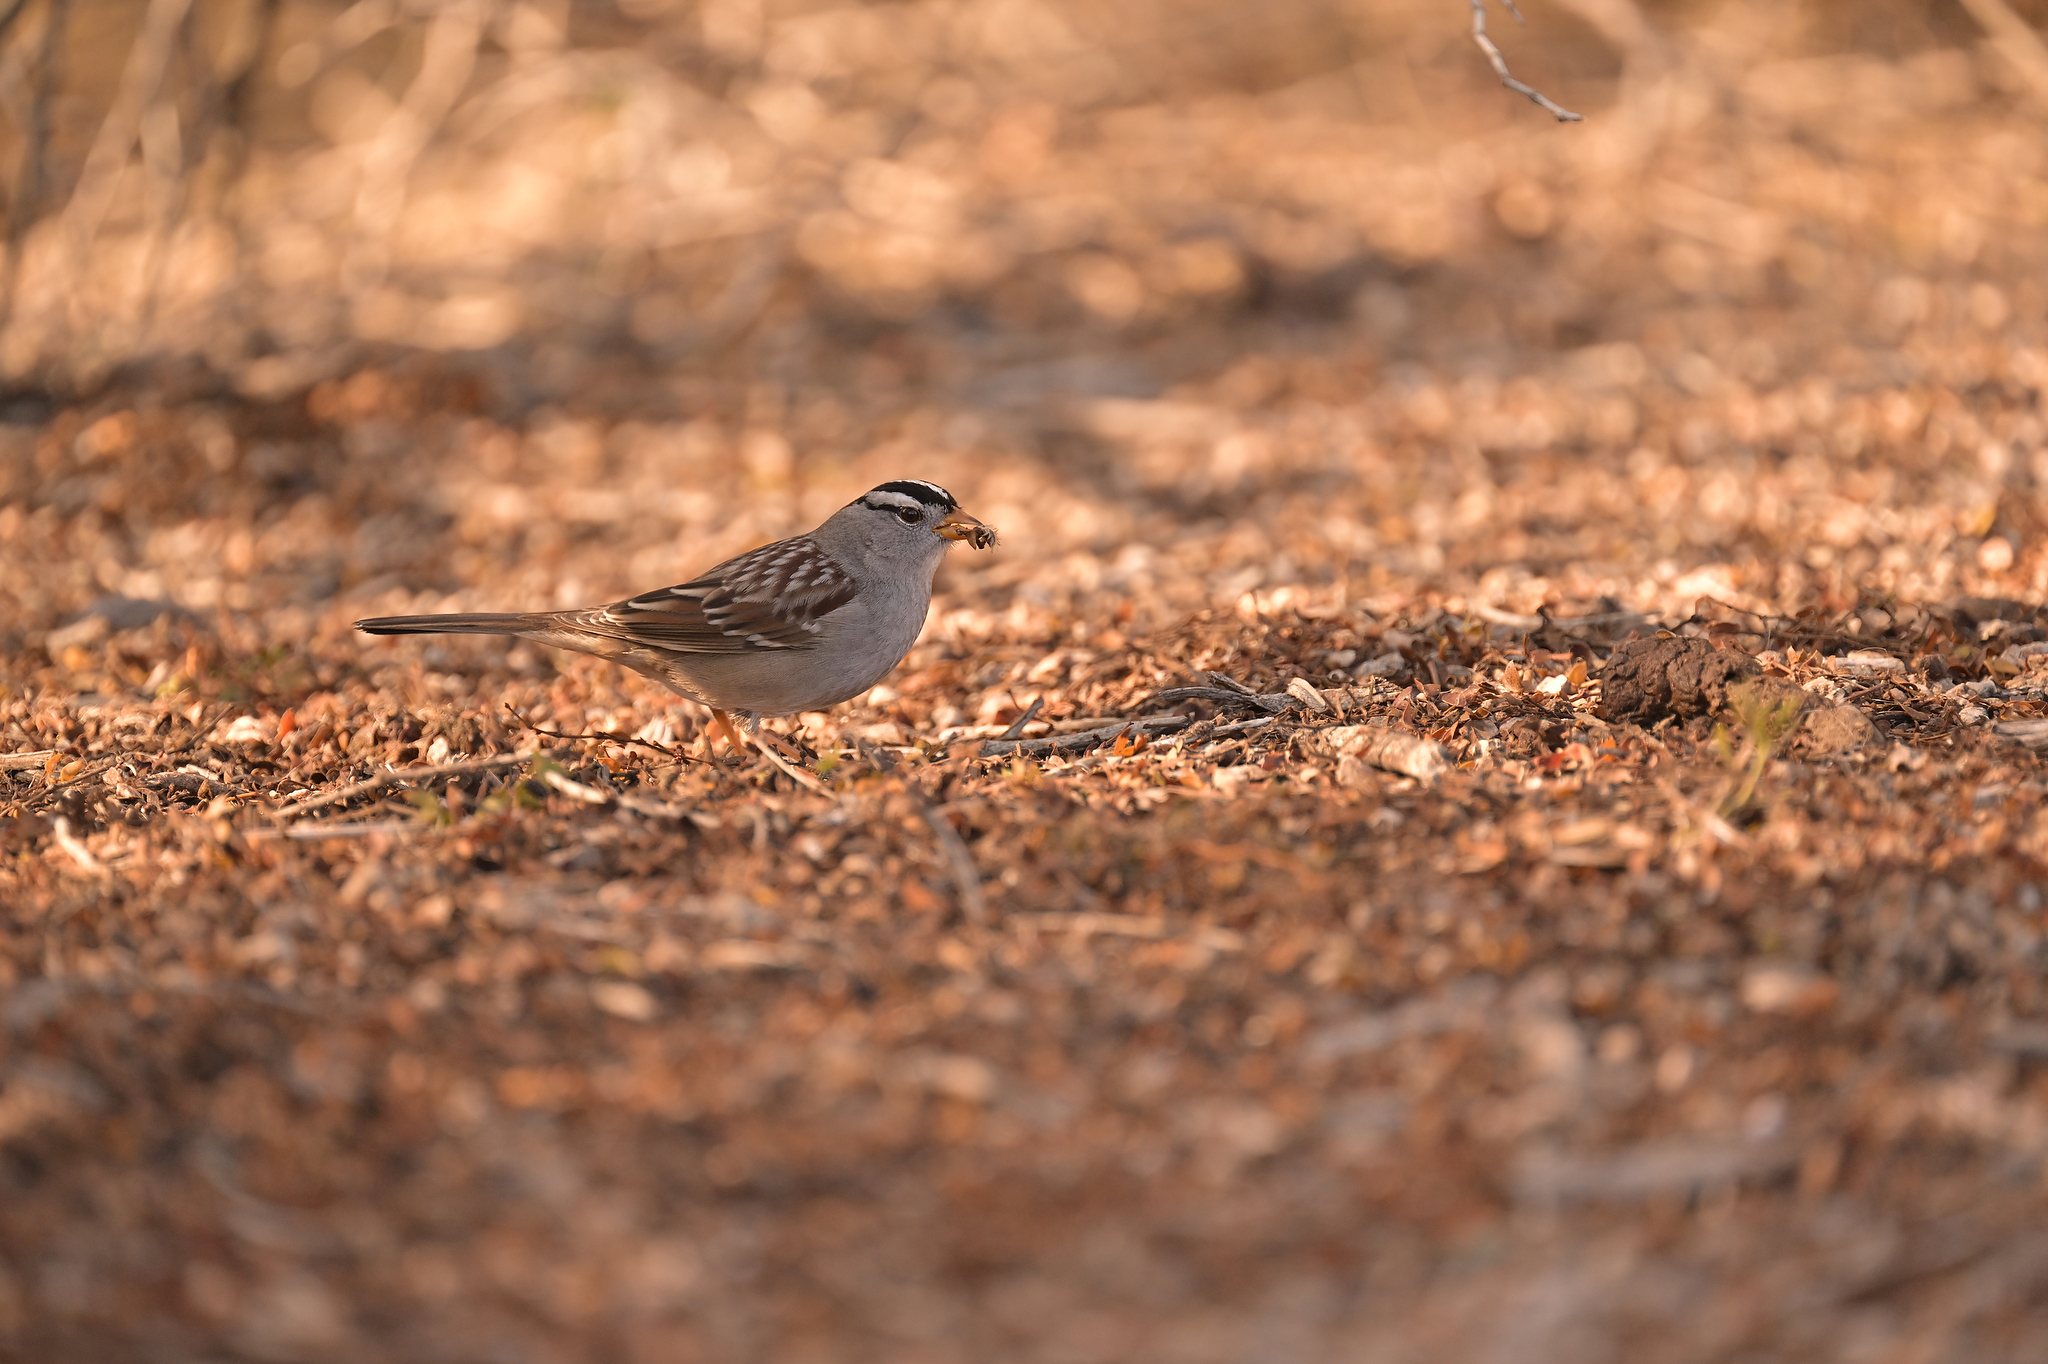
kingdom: Animalia
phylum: Chordata
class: Aves
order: Passeriformes
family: Passerellidae
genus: Zonotrichia
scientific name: Zonotrichia leucophrys
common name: White-crowned sparrow
